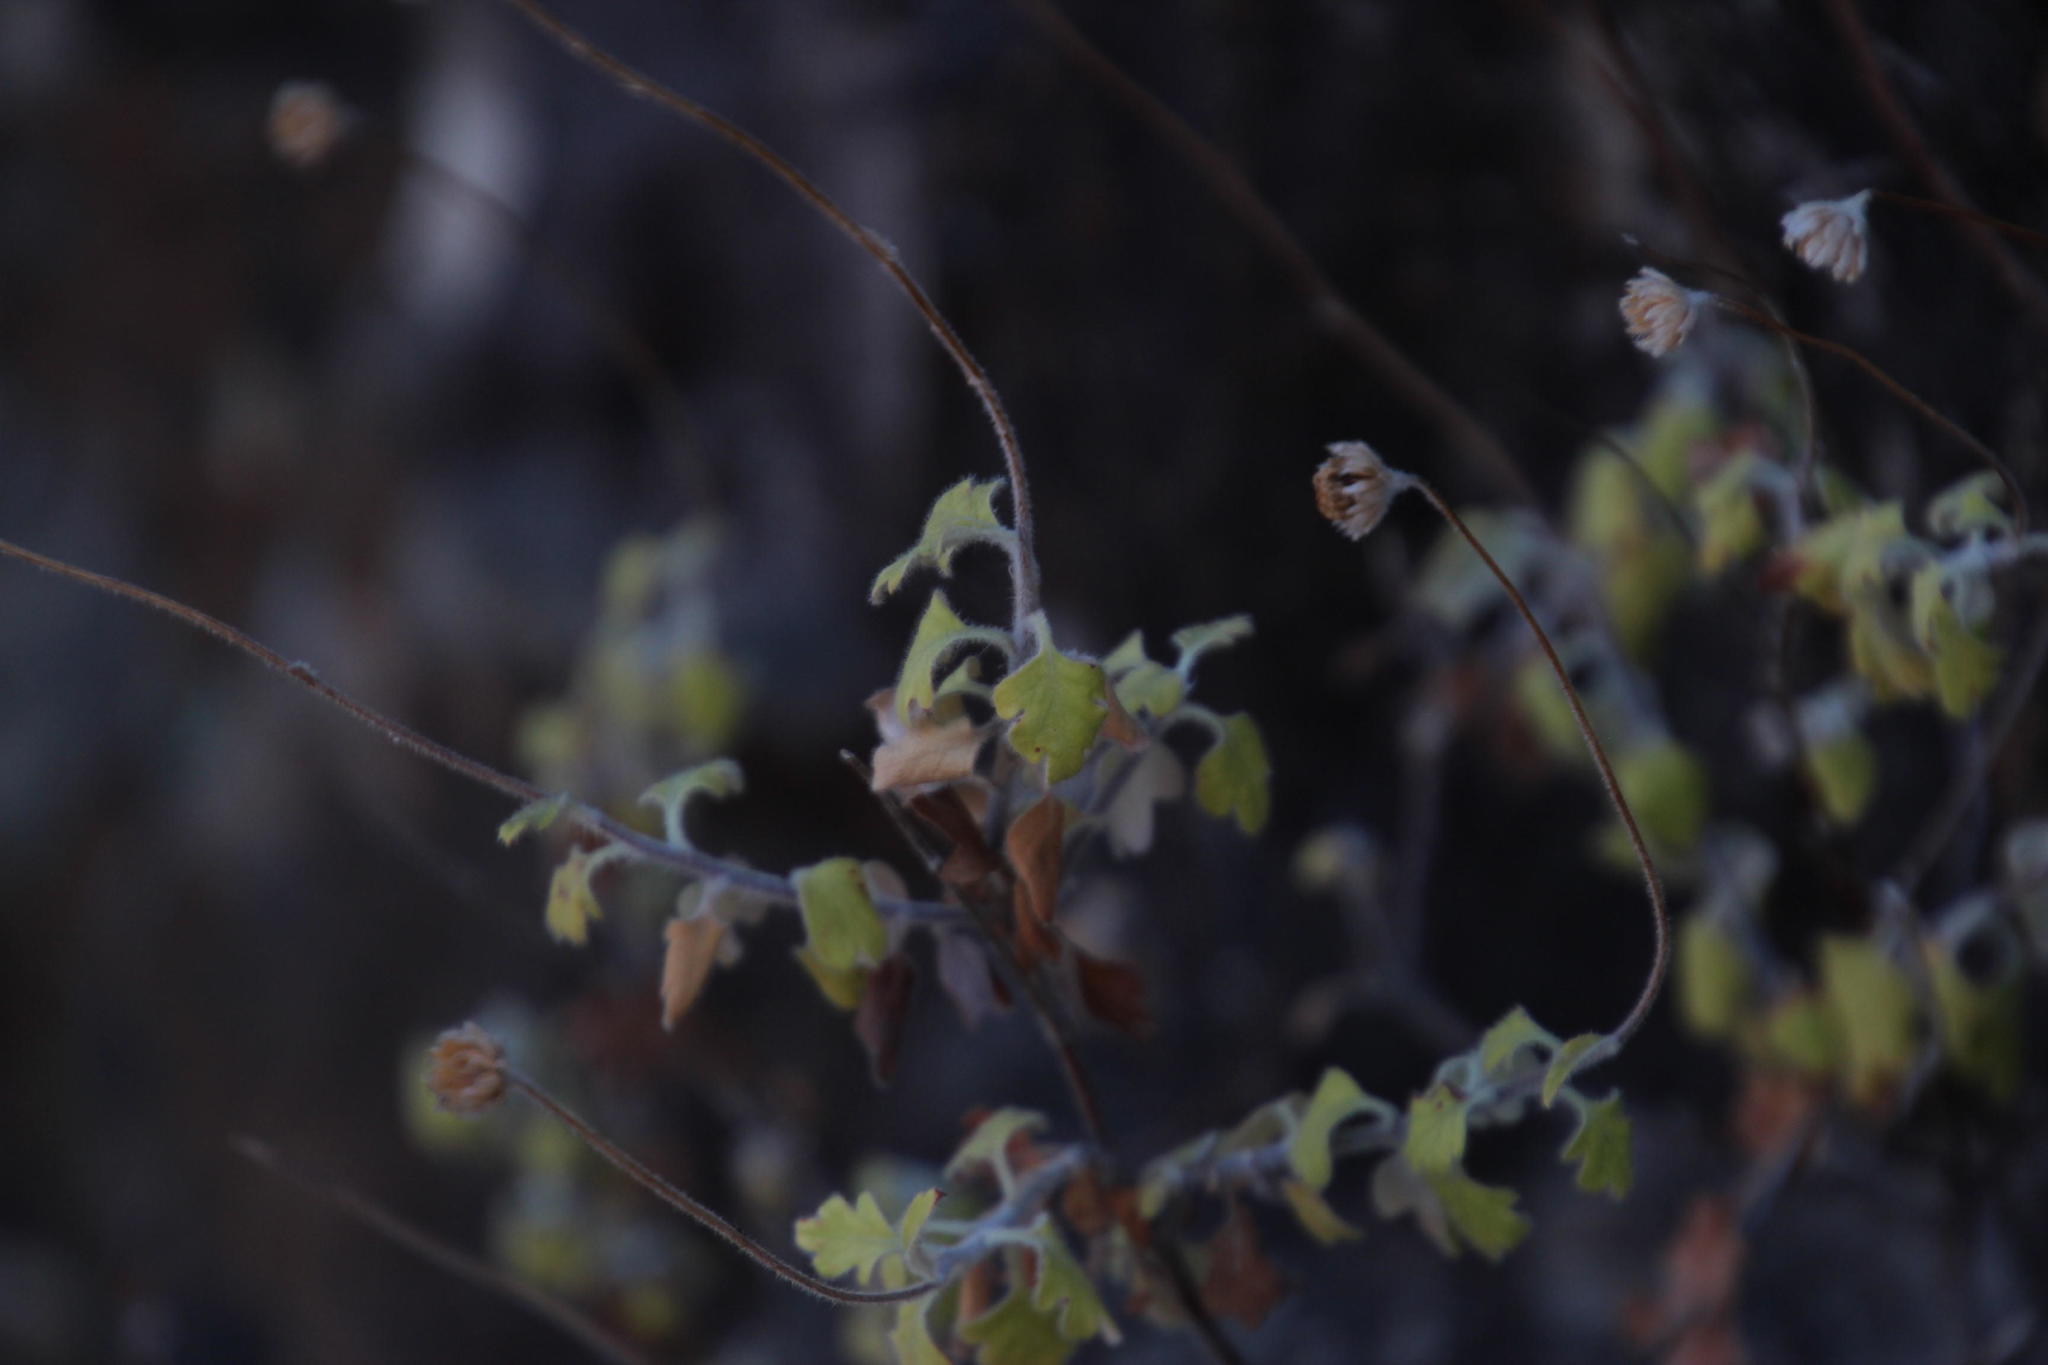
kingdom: Plantae
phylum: Tracheophyta
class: Magnoliopsida
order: Asterales
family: Asteraceae
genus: Lidbeckia
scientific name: Lidbeckia quinqueloba
